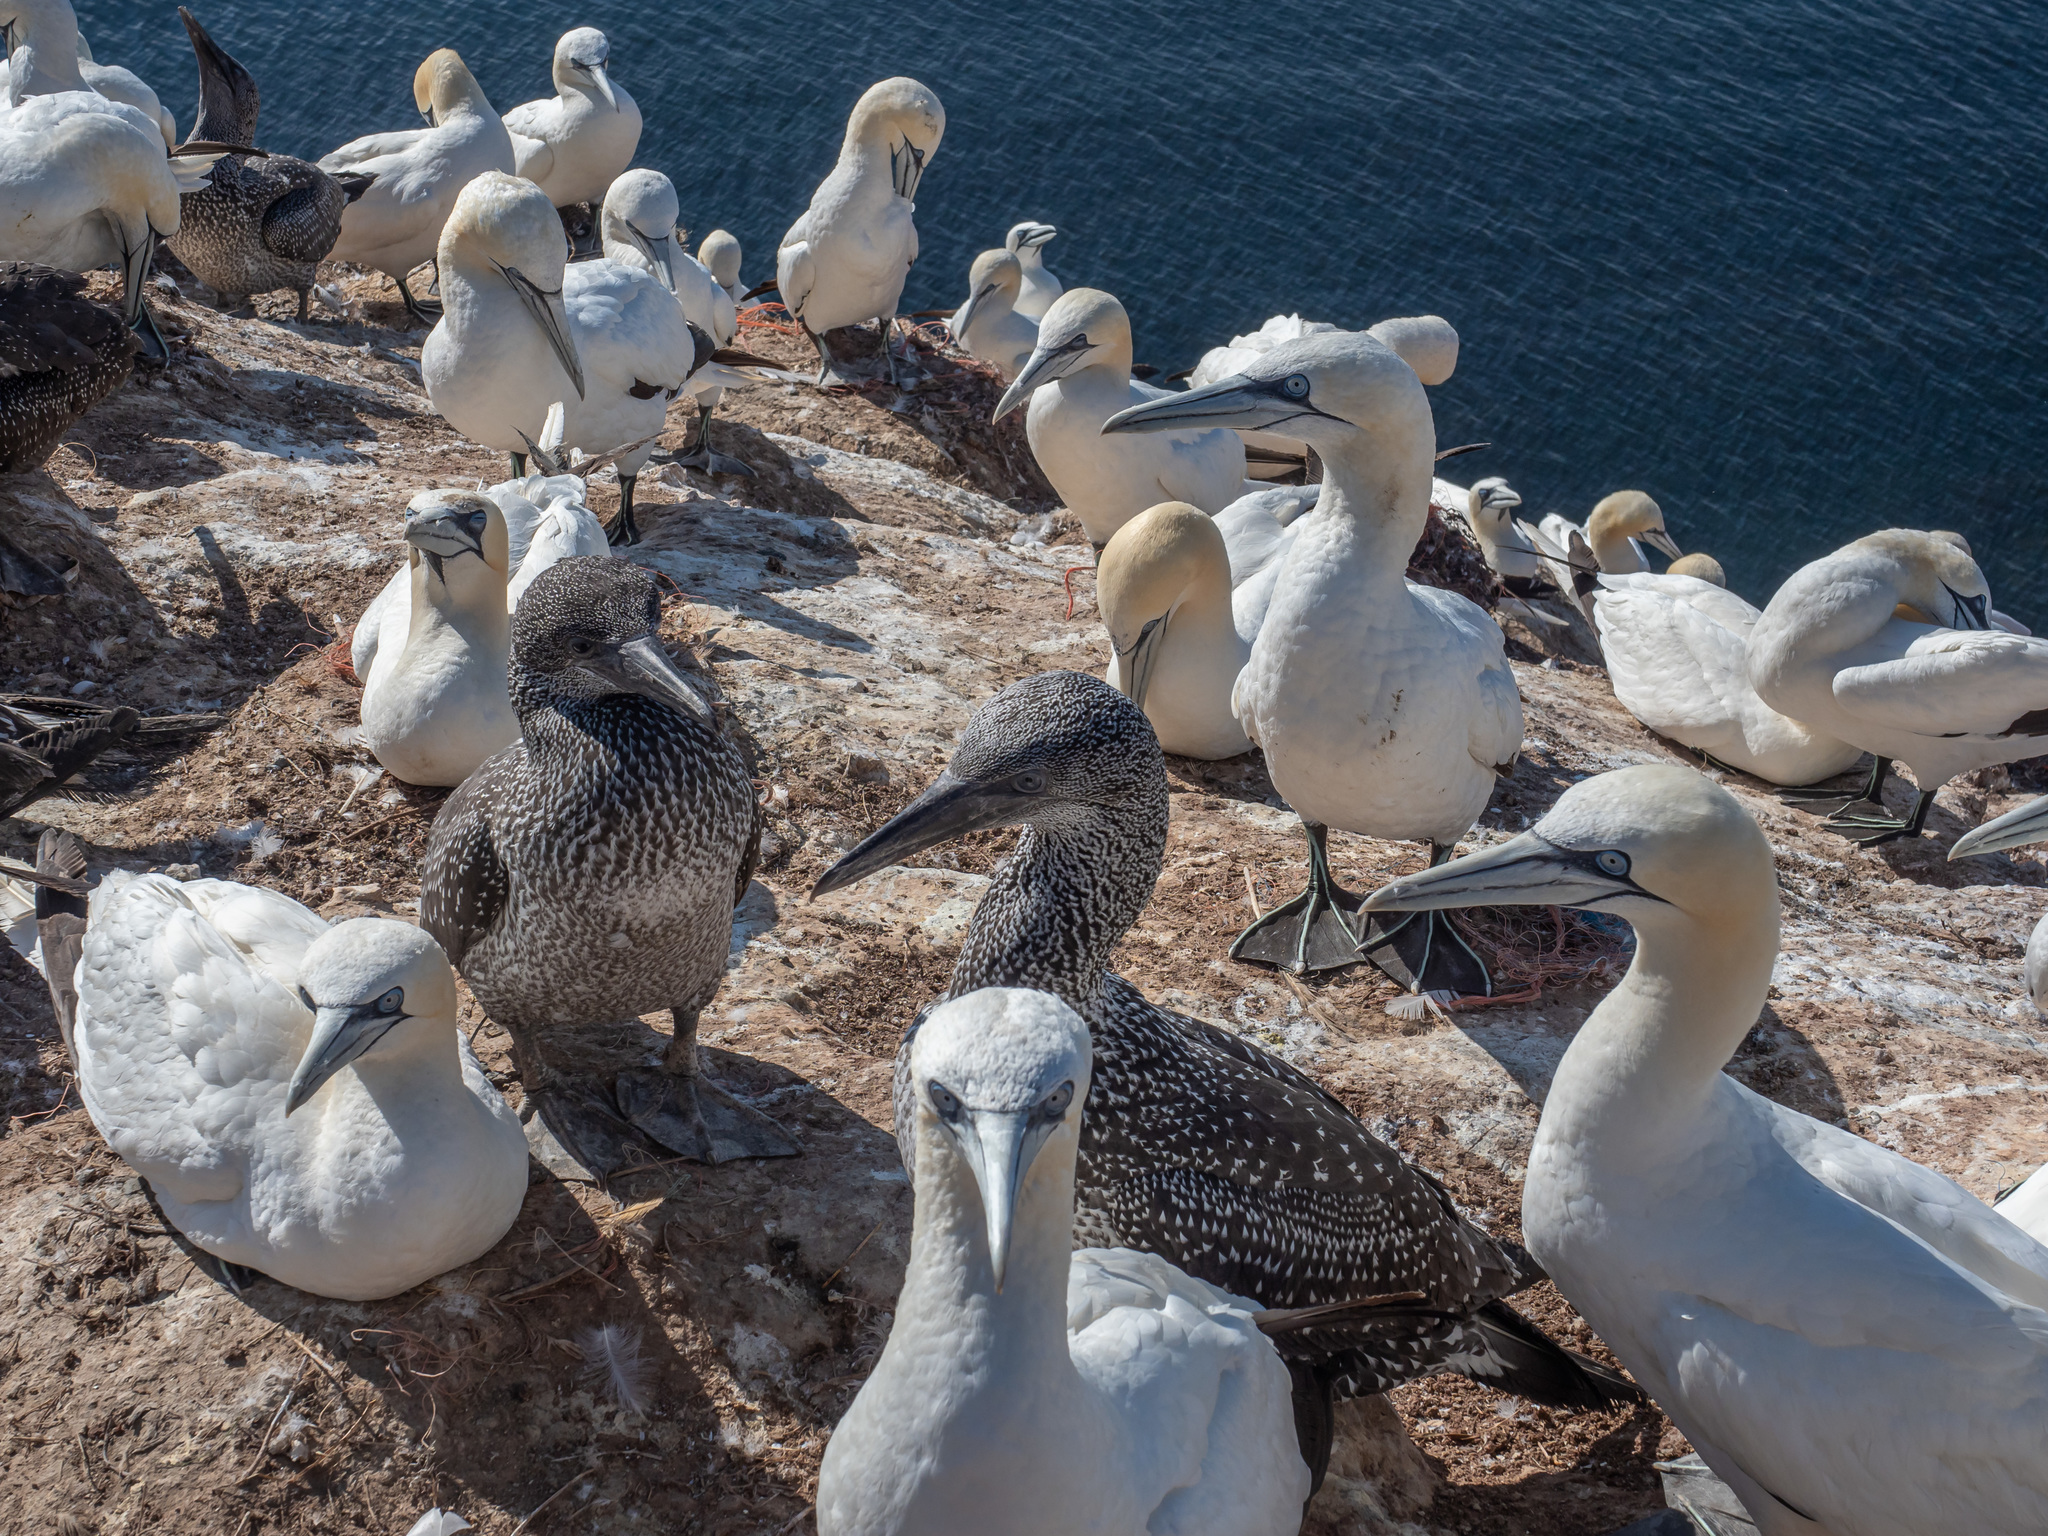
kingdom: Animalia
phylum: Chordata
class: Aves
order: Suliformes
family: Sulidae
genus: Morus
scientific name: Morus bassanus
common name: Northern gannet
